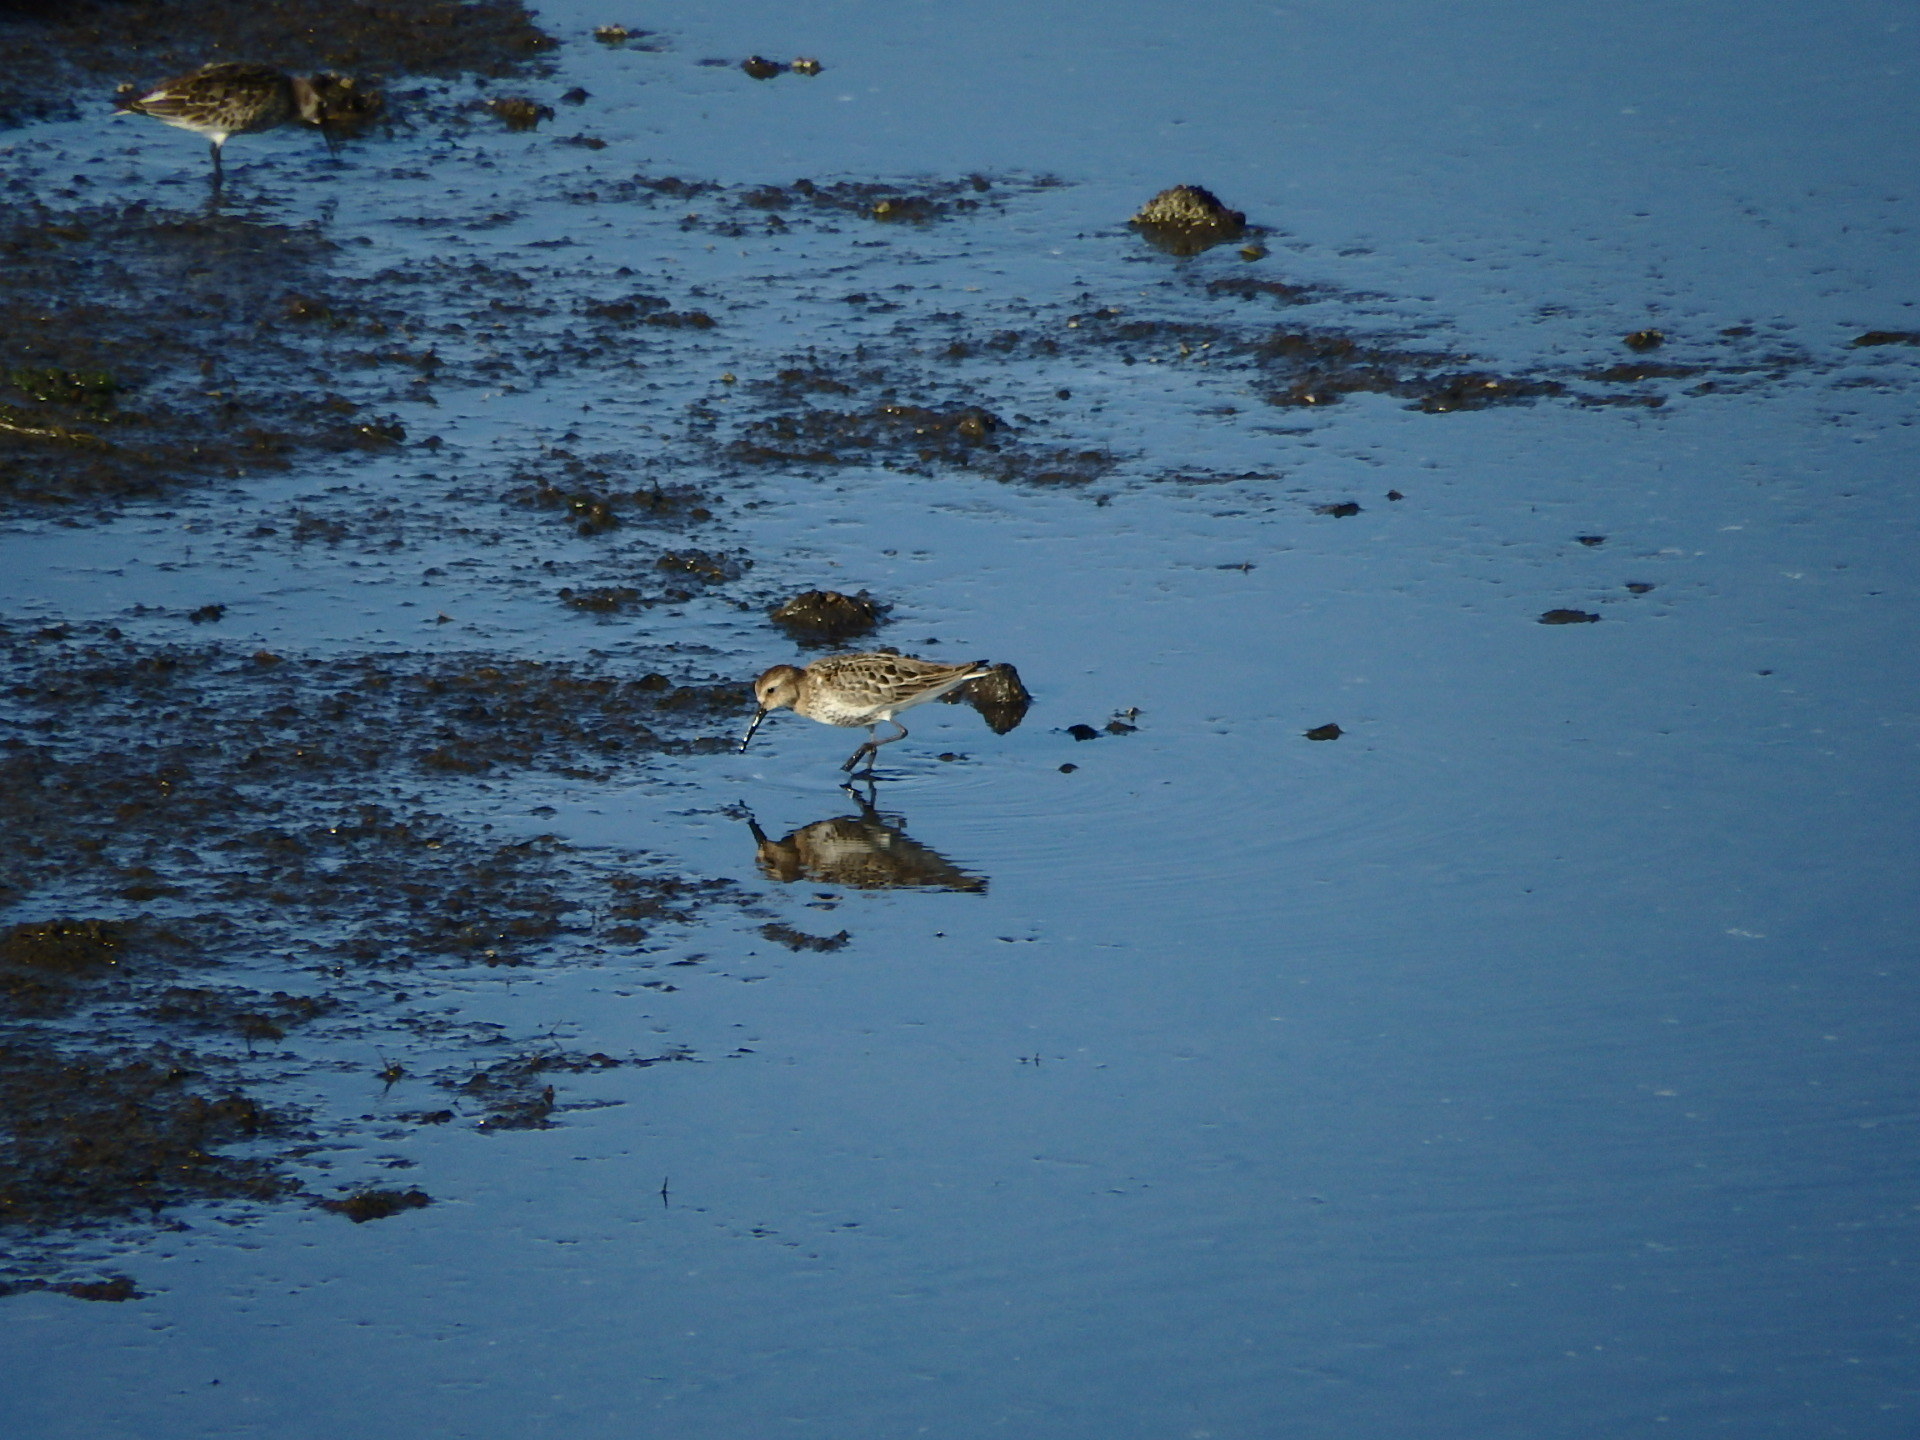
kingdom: Animalia
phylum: Chordata
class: Aves
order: Charadriiformes
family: Scolopacidae
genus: Calidris
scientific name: Calidris alpina
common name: Dunlin
